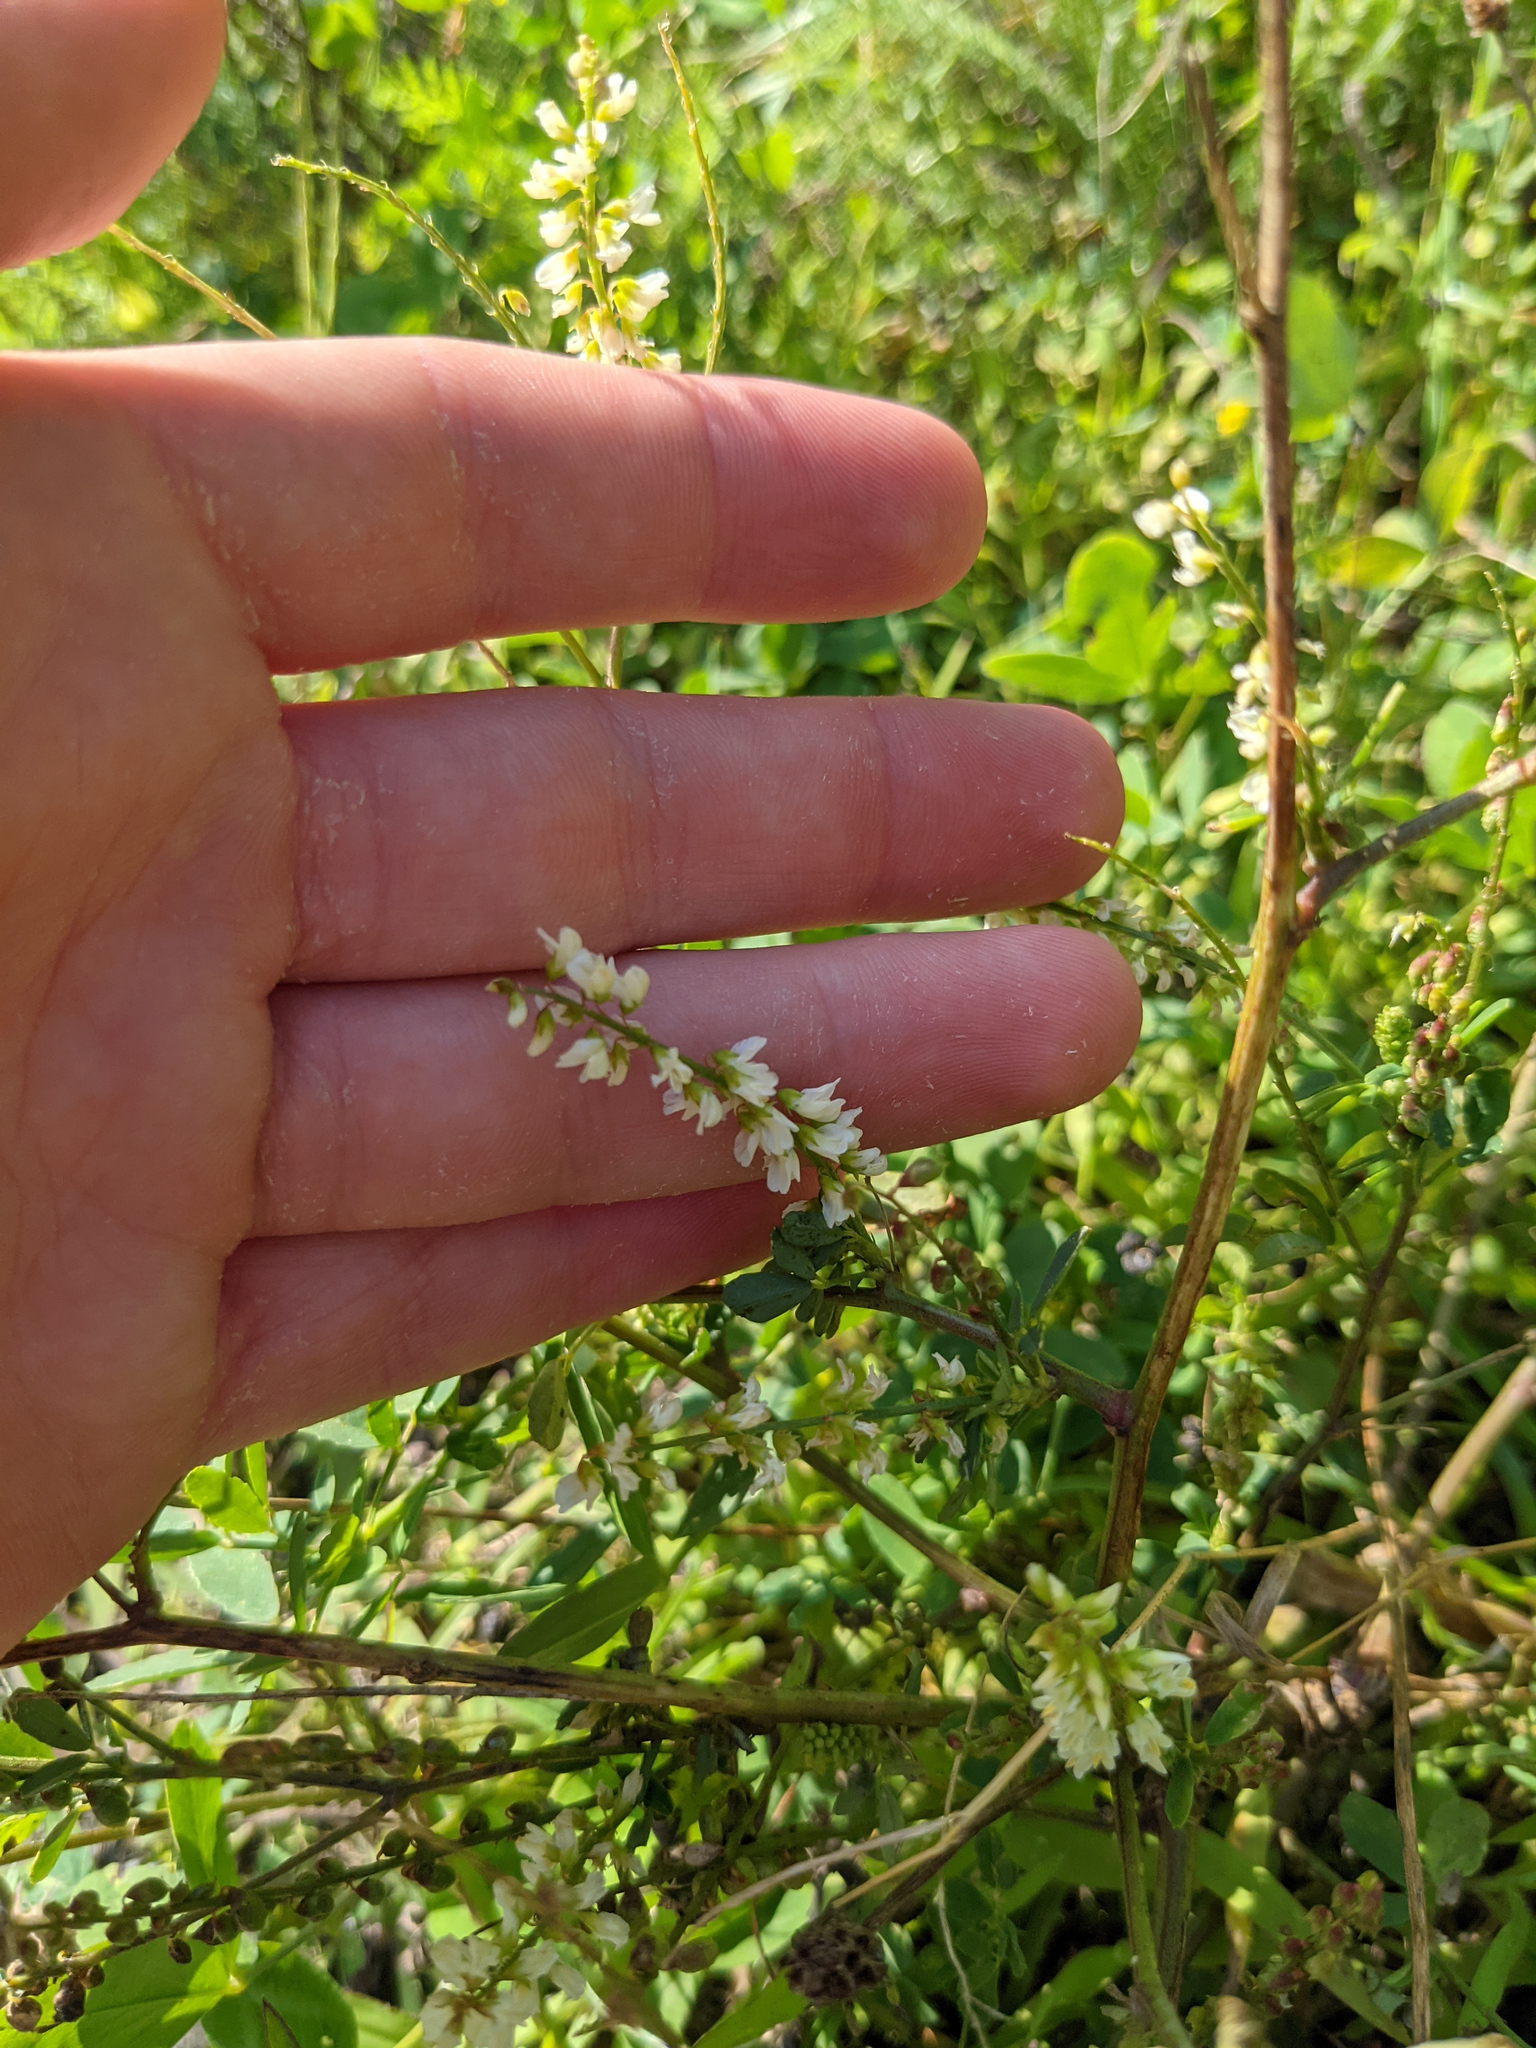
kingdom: Plantae
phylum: Tracheophyta
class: Magnoliopsida
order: Fabales
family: Fabaceae
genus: Melilotus
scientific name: Melilotus albus
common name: White melilot
